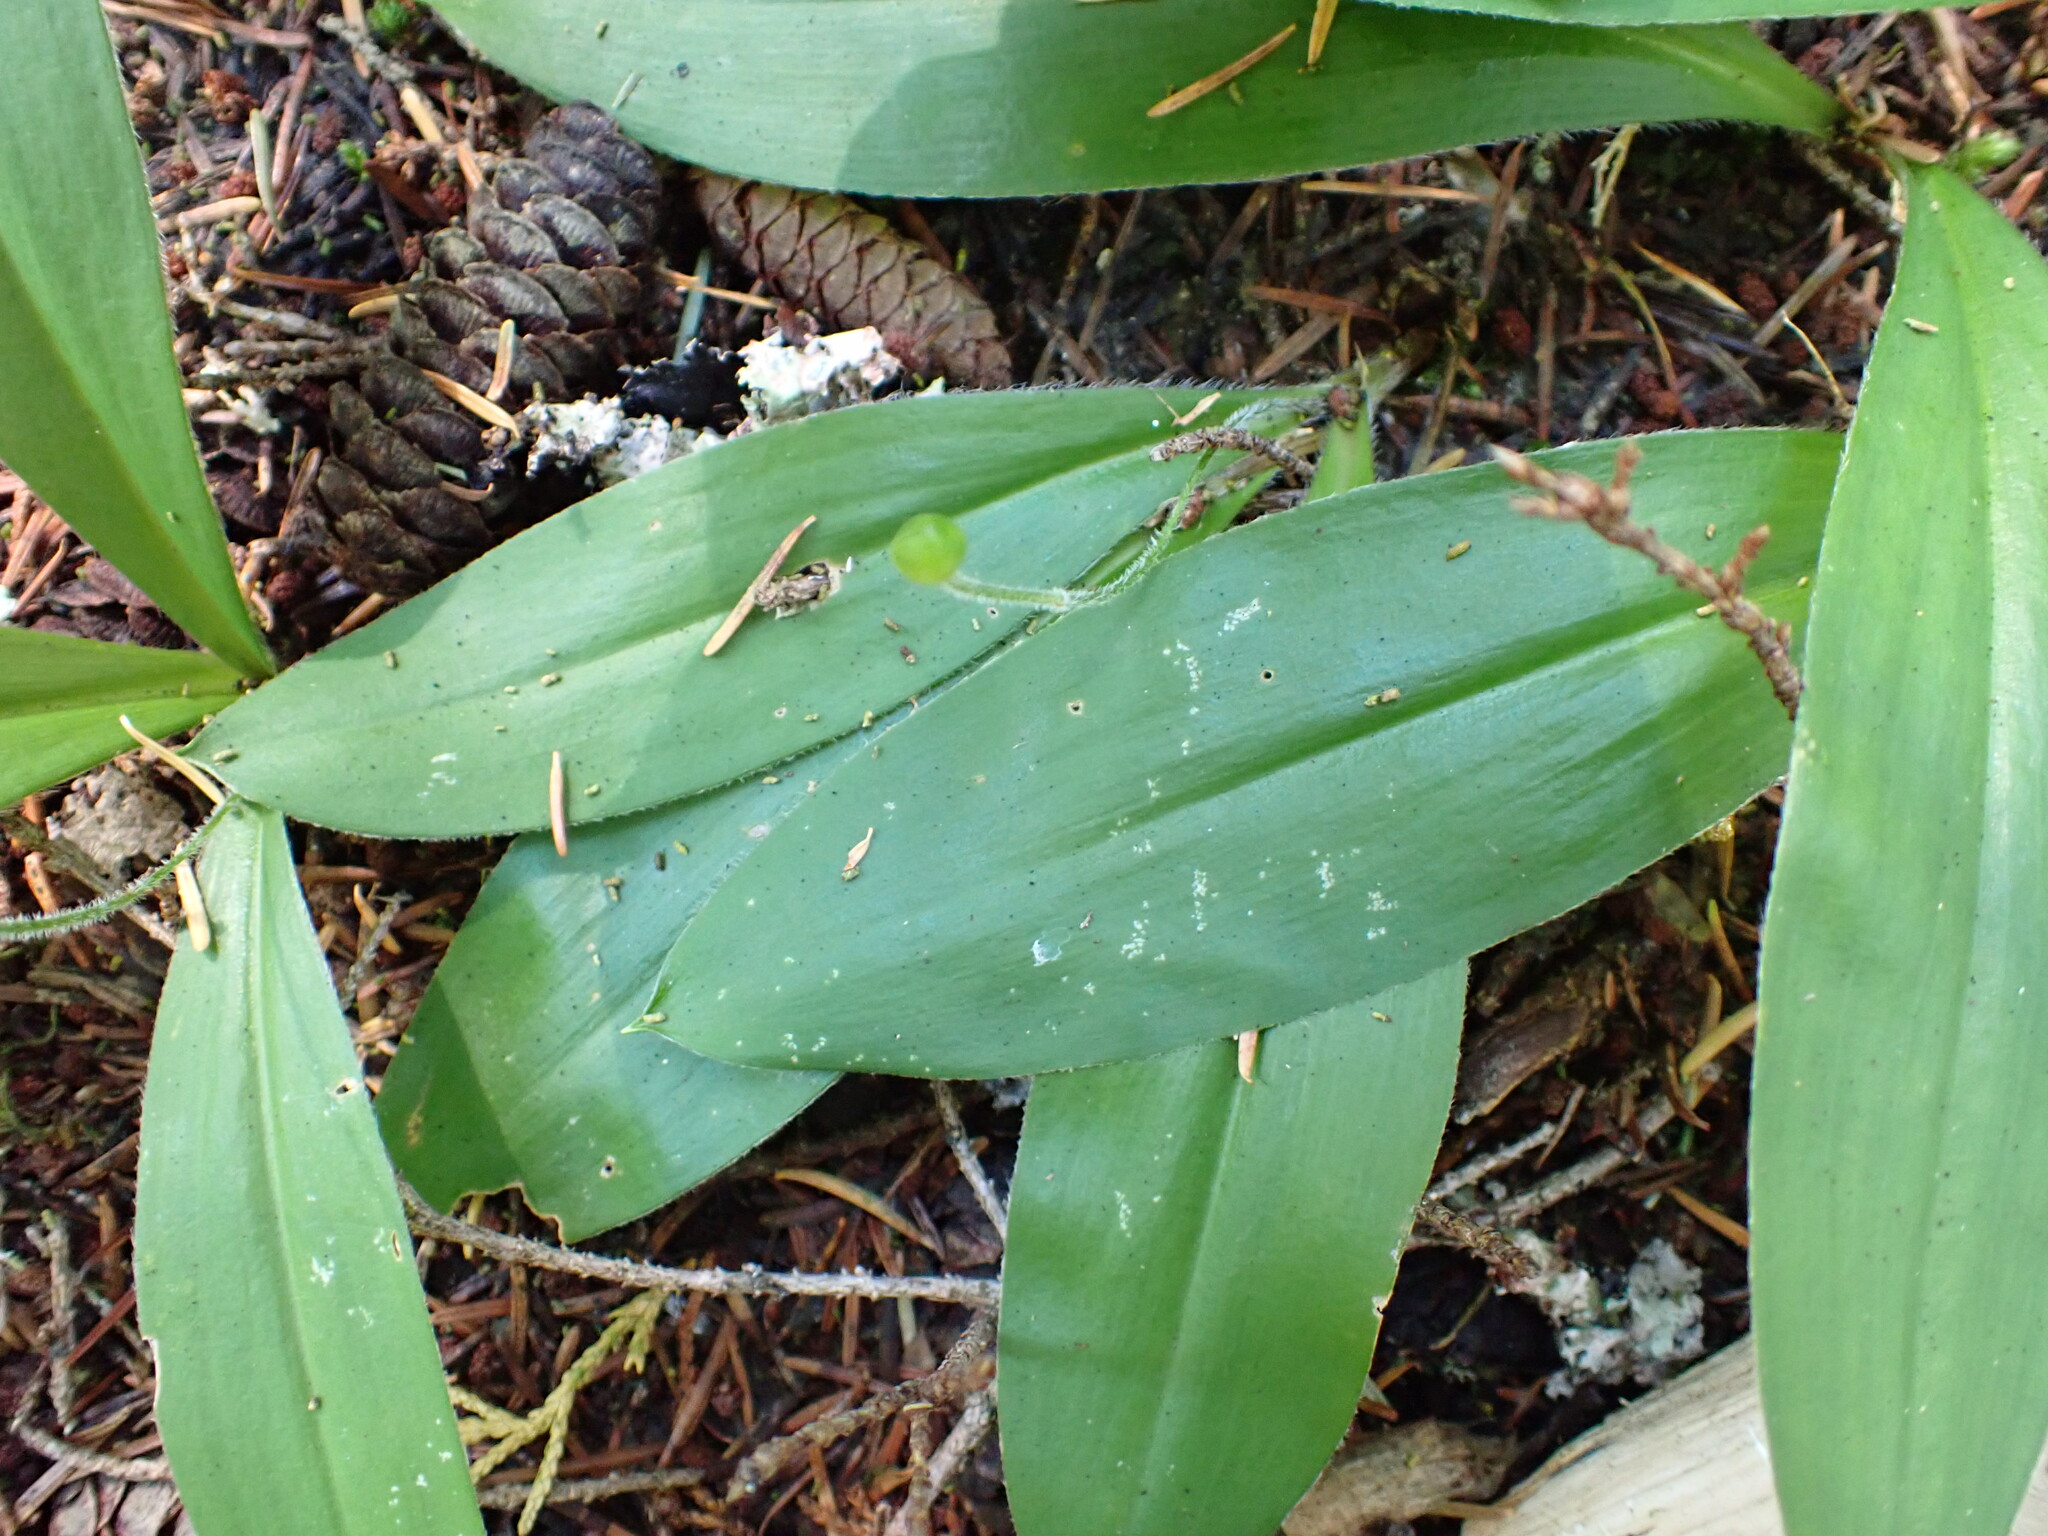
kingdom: Plantae
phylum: Tracheophyta
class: Liliopsida
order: Liliales
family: Liliaceae
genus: Clintonia
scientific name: Clintonia uniflora
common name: Queen's cup
